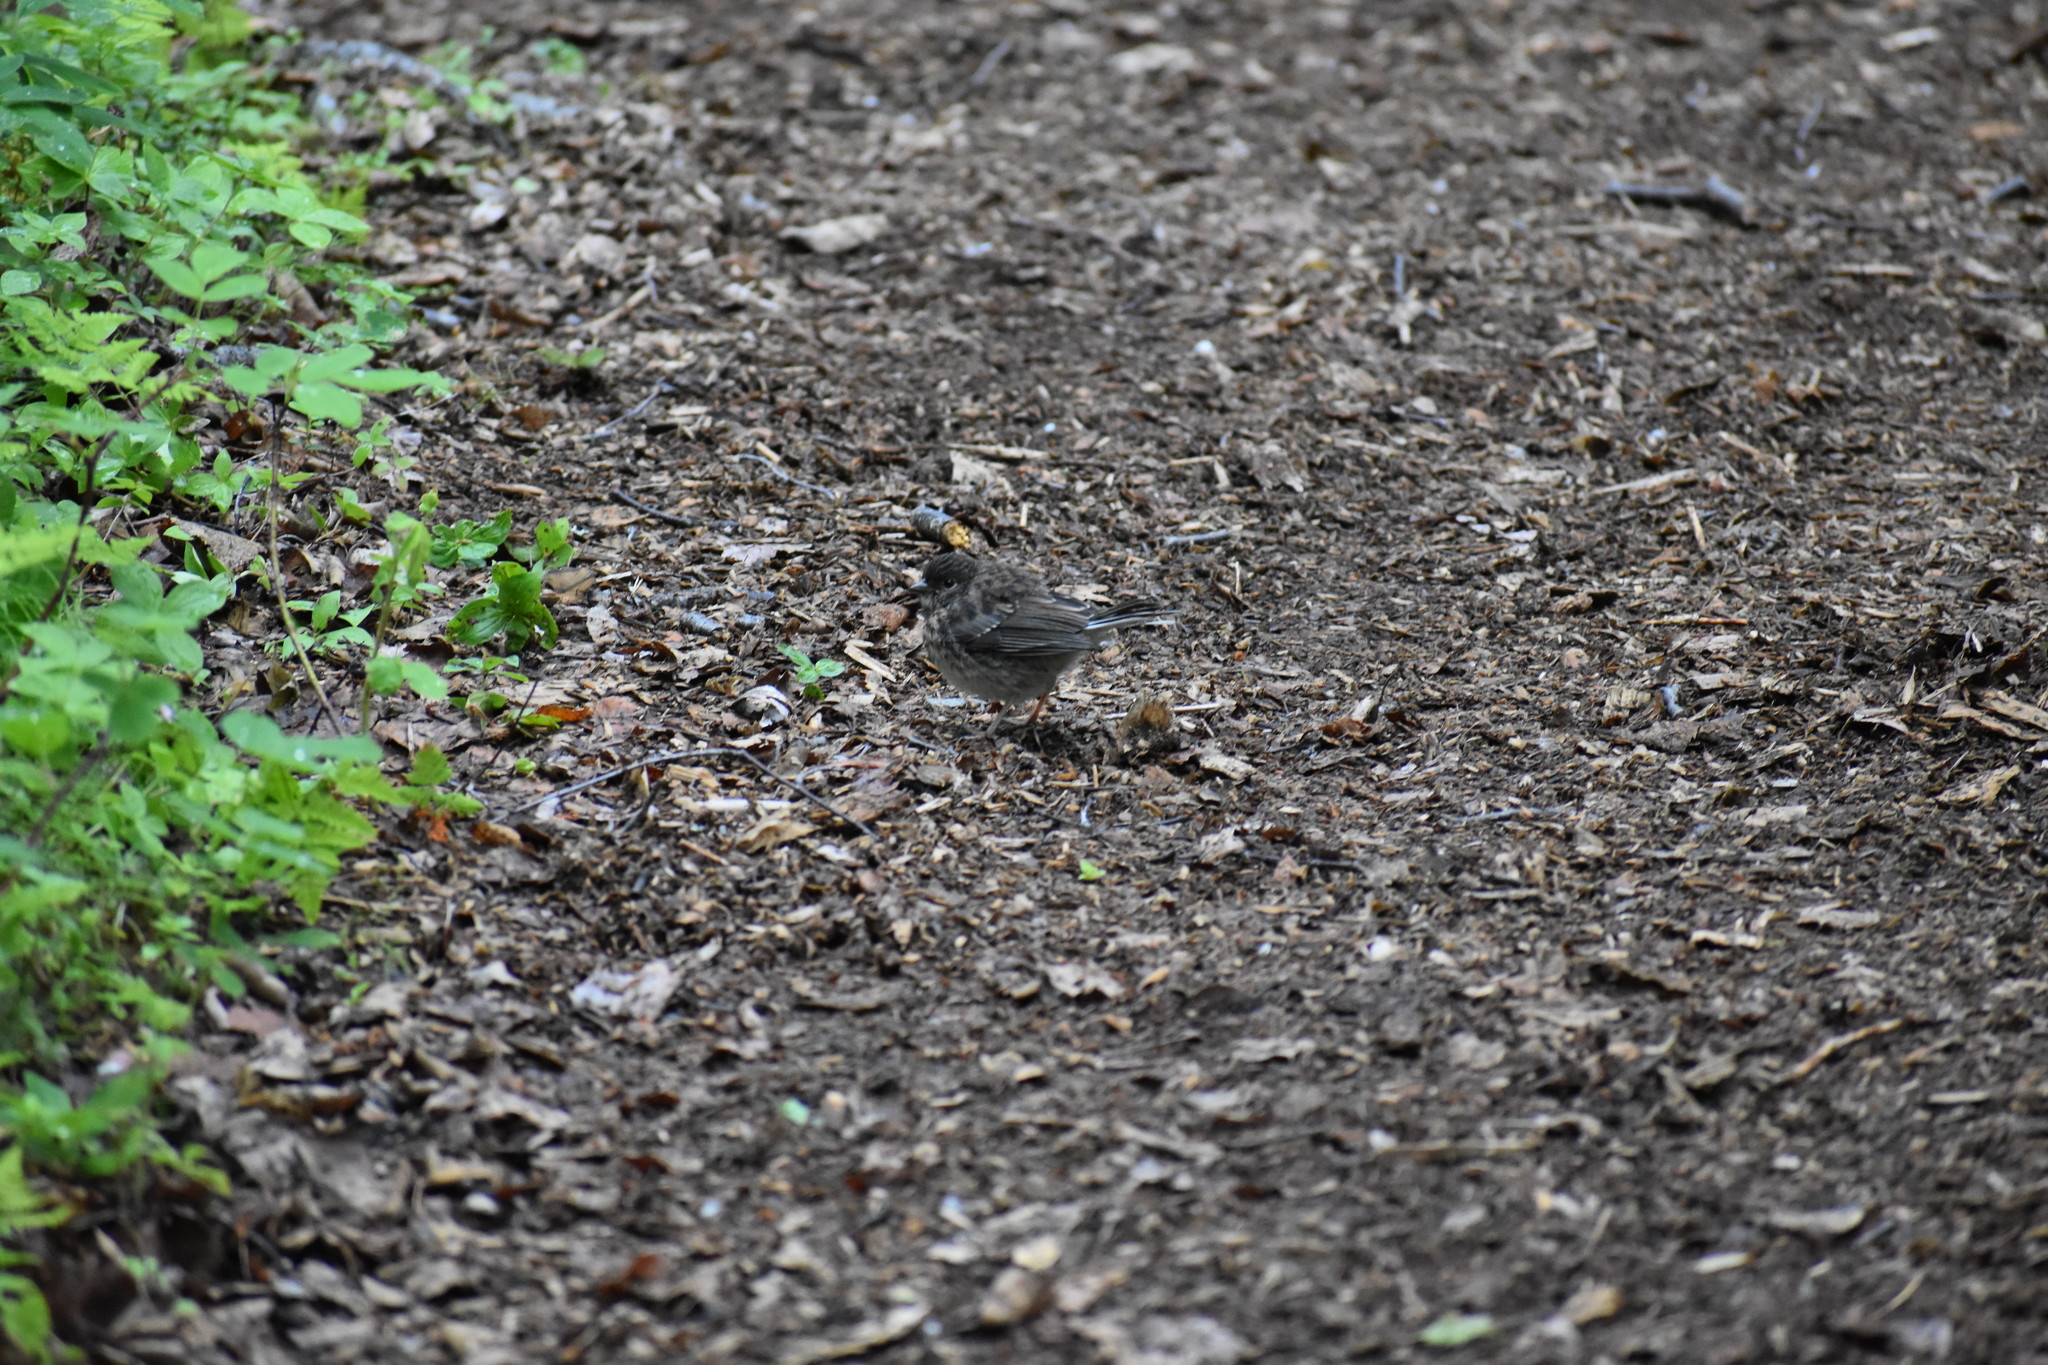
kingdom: Animalia
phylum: Chordata
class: Aves
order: Passeriformes
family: Passerellidae
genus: Junco
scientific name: Junco hyemalis
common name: Dark-eyed junco
